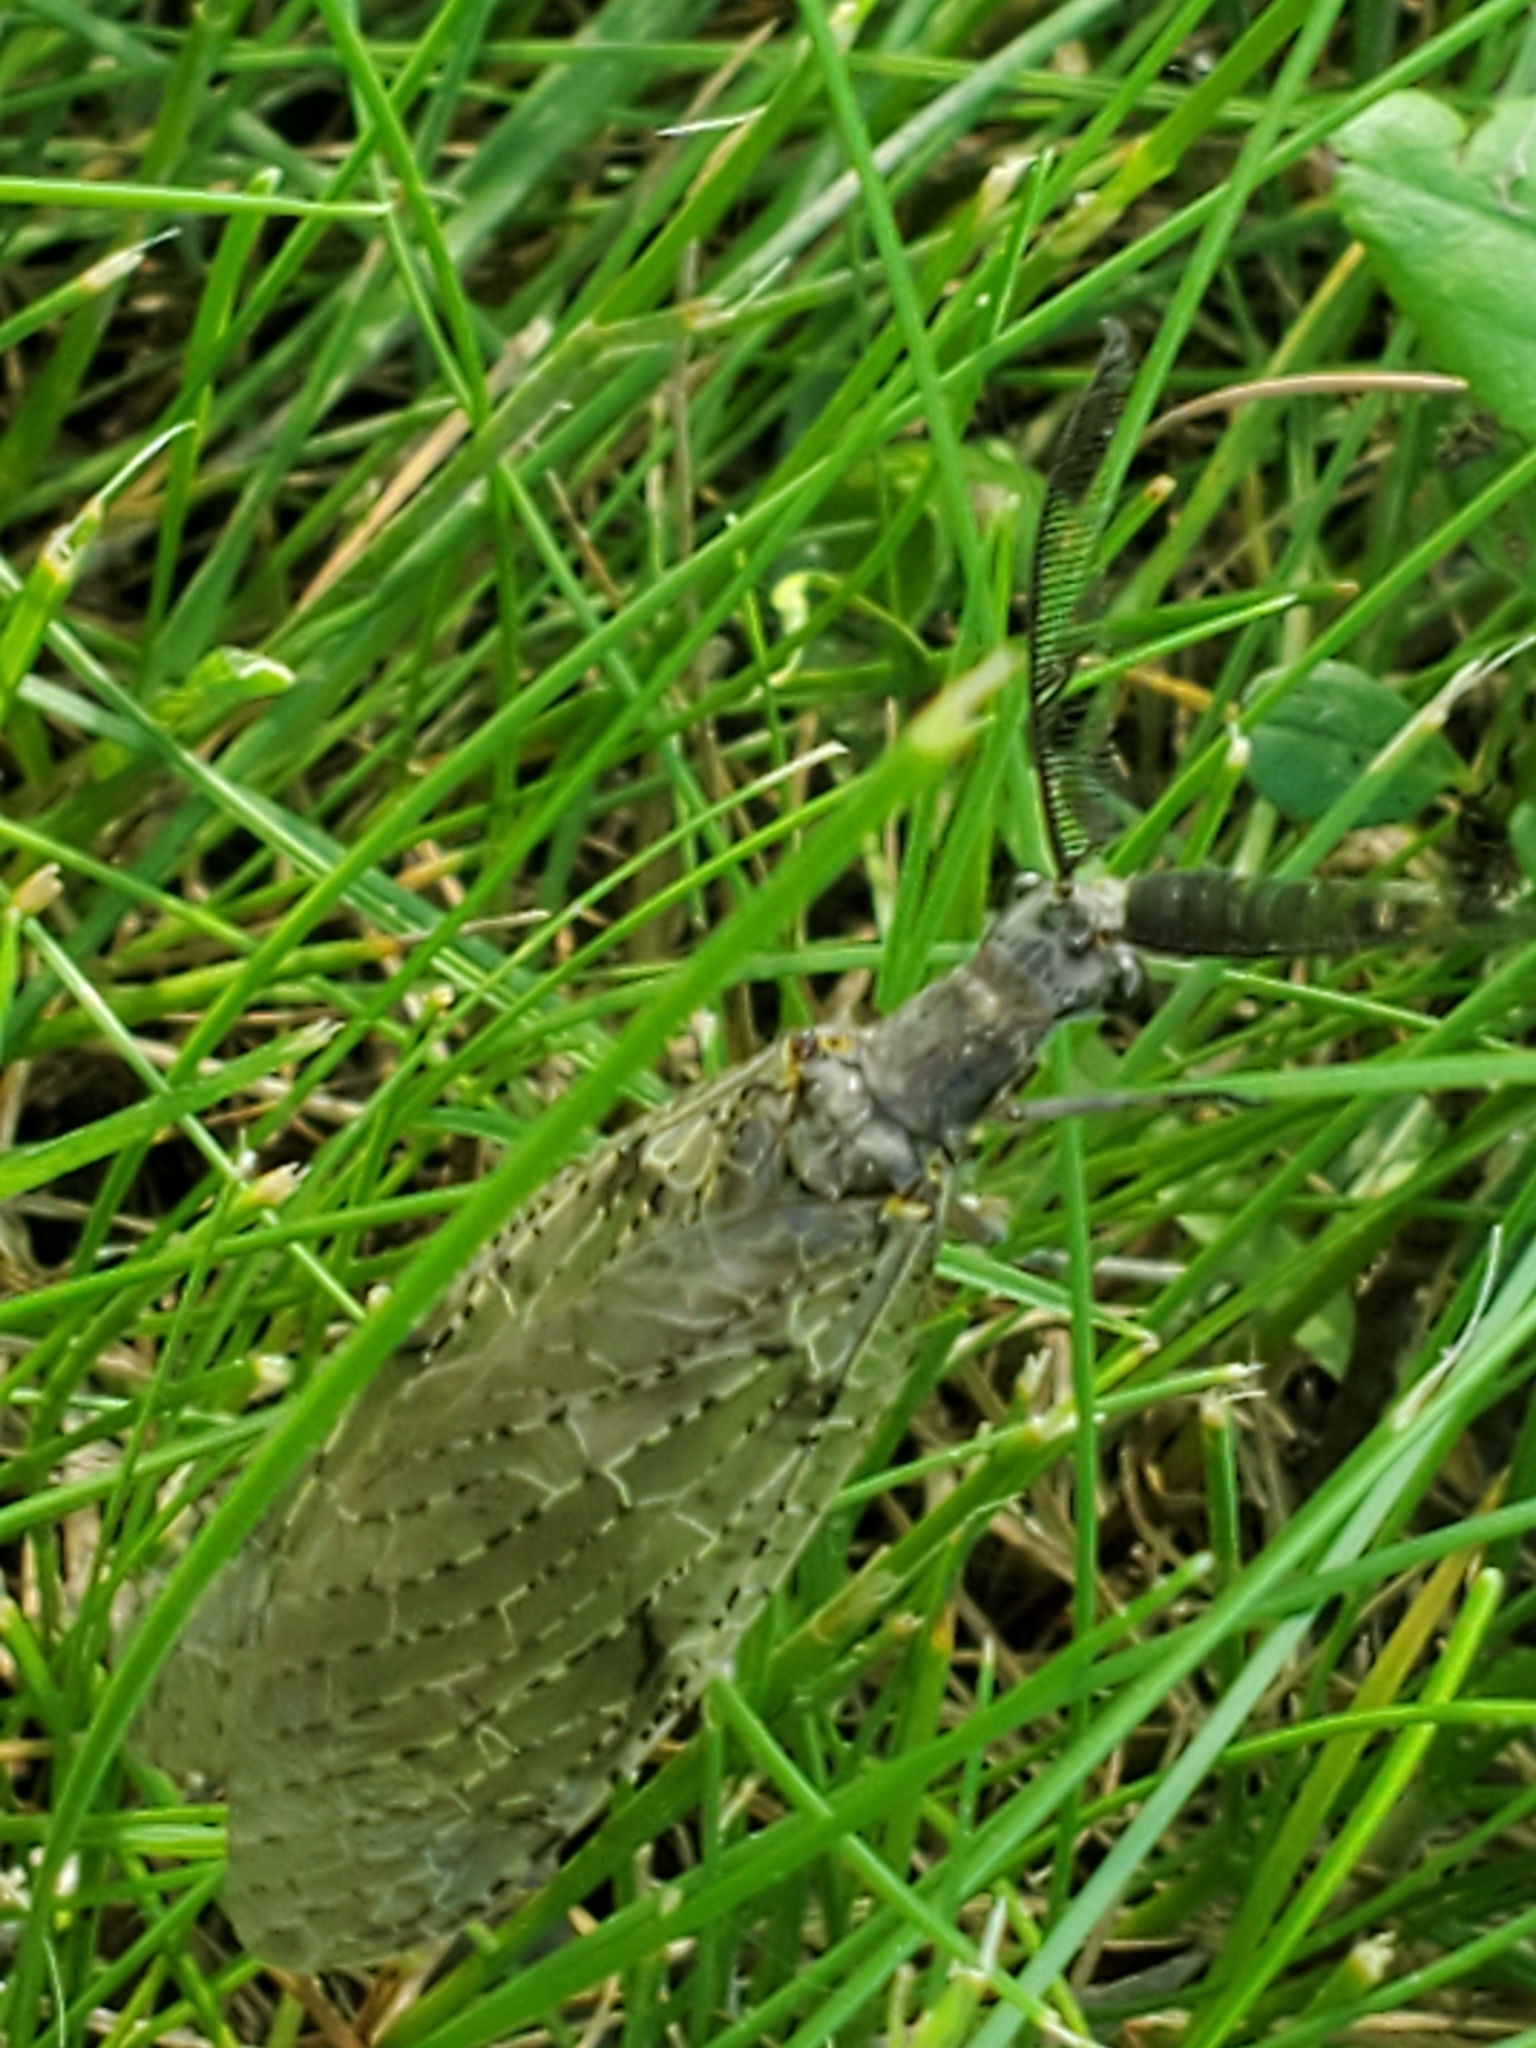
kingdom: Animalia
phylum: Arthropoda
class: Insecta
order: Megaloptera
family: Corydalidae
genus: Chauliodes
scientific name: Chauliodes rastricornis
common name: Spring fishfly
